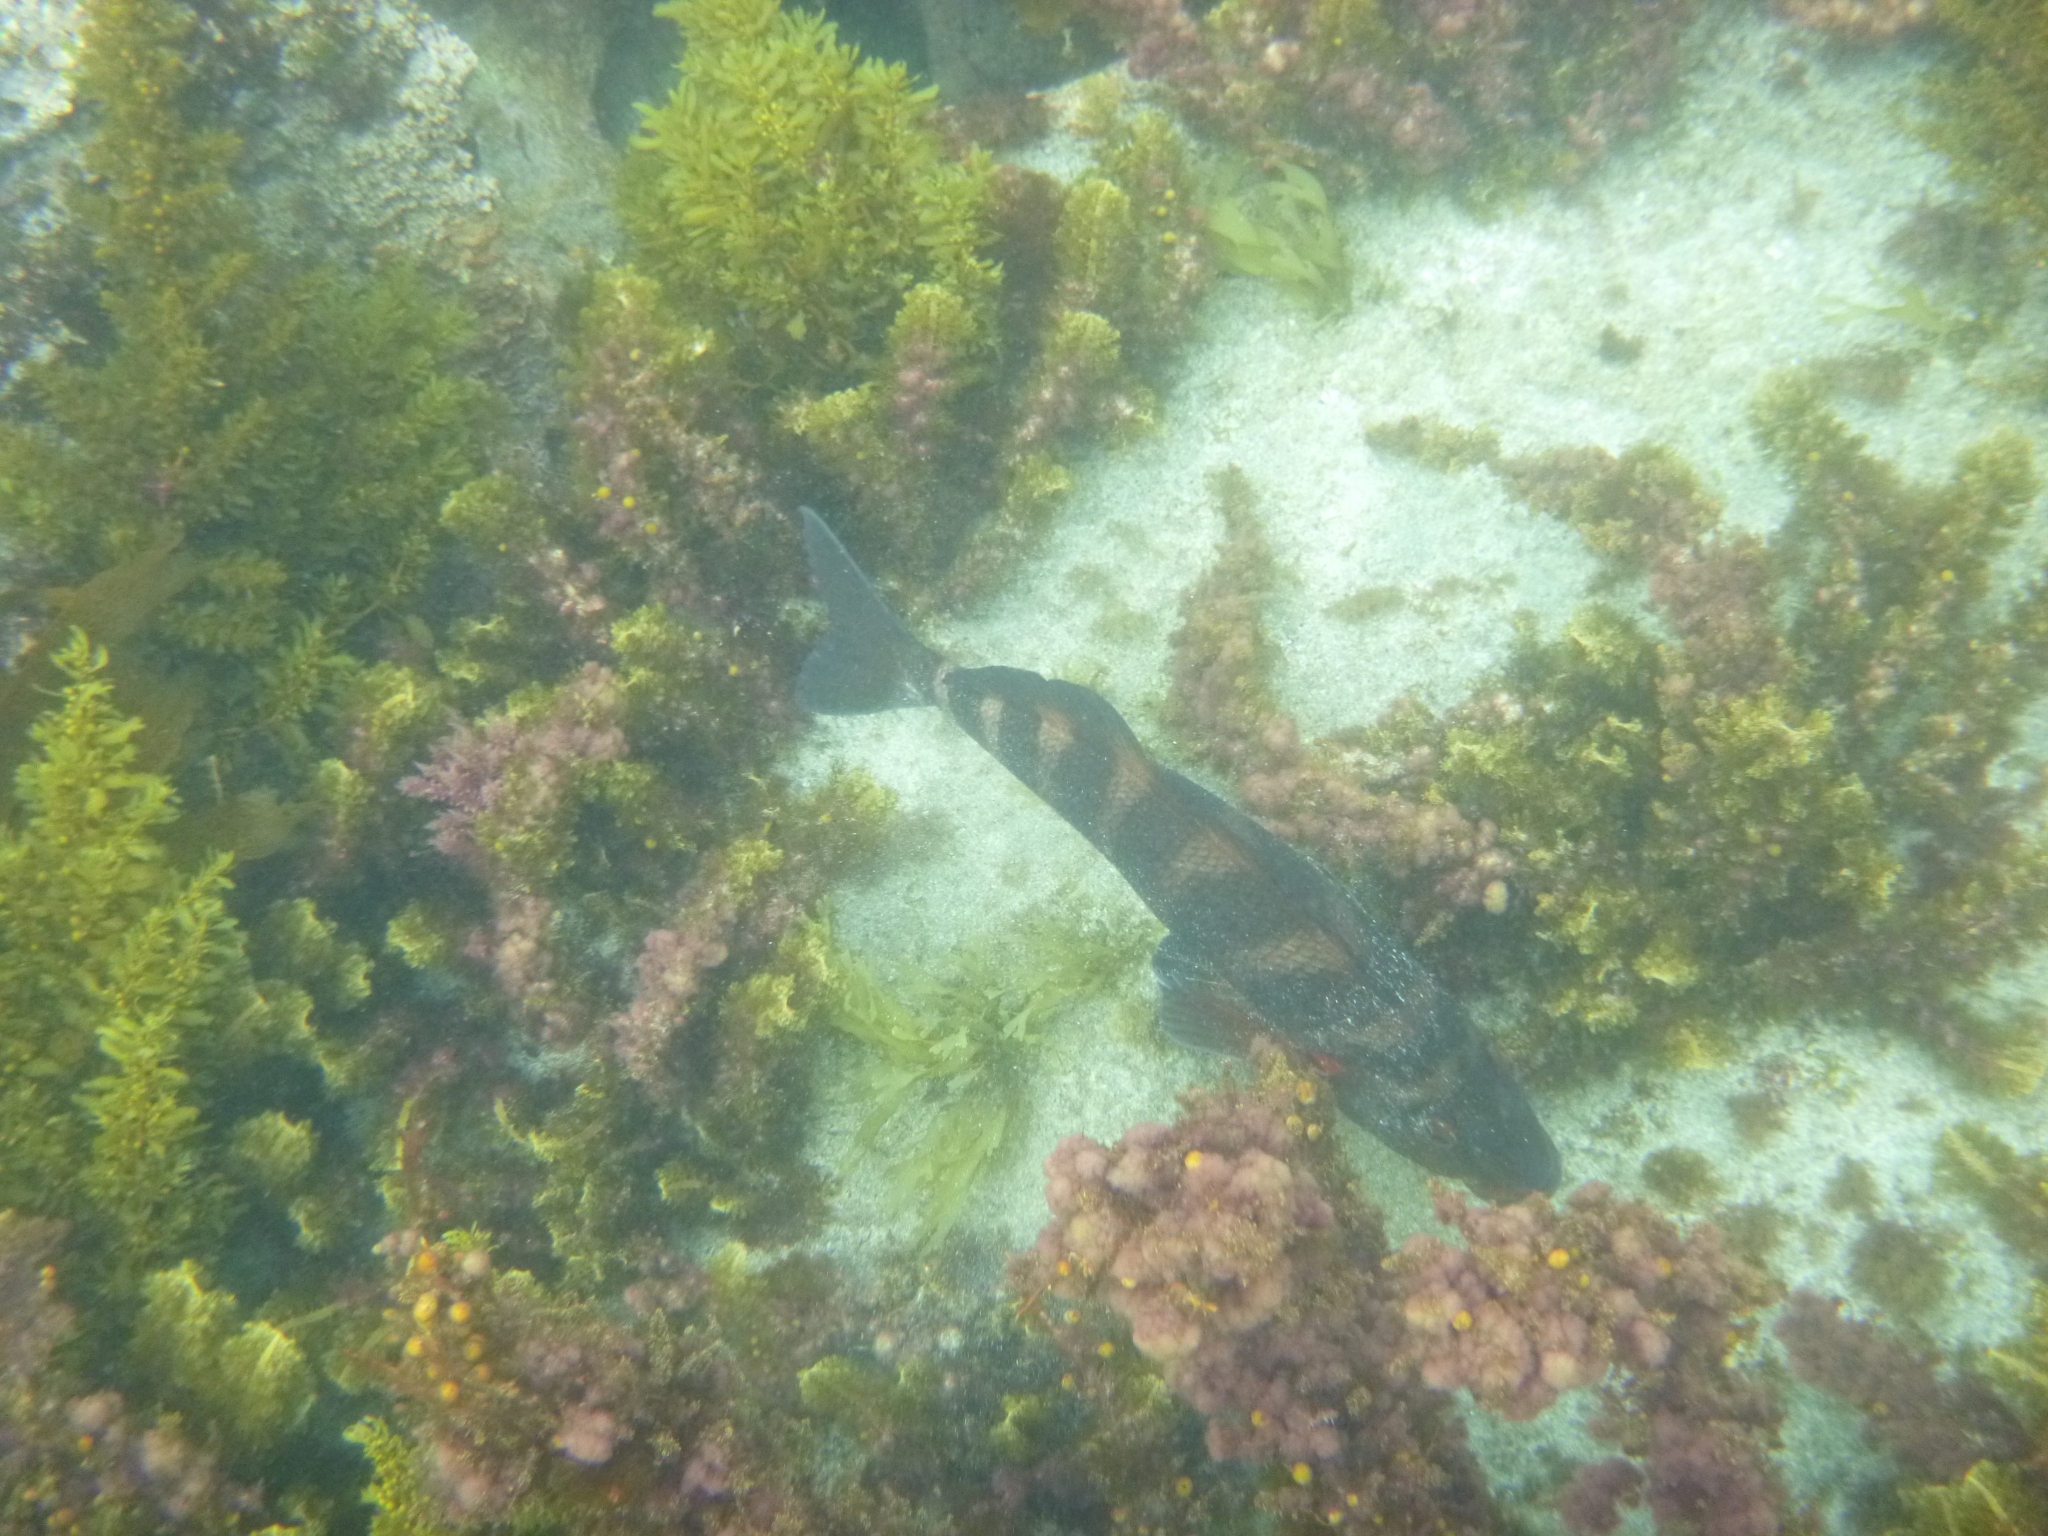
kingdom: Animalia
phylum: Chordata
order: Perciformes
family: Cheilodactylidae
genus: Cheilodactylus
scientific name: Cheilodactylus spectabilis
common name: Red moki
